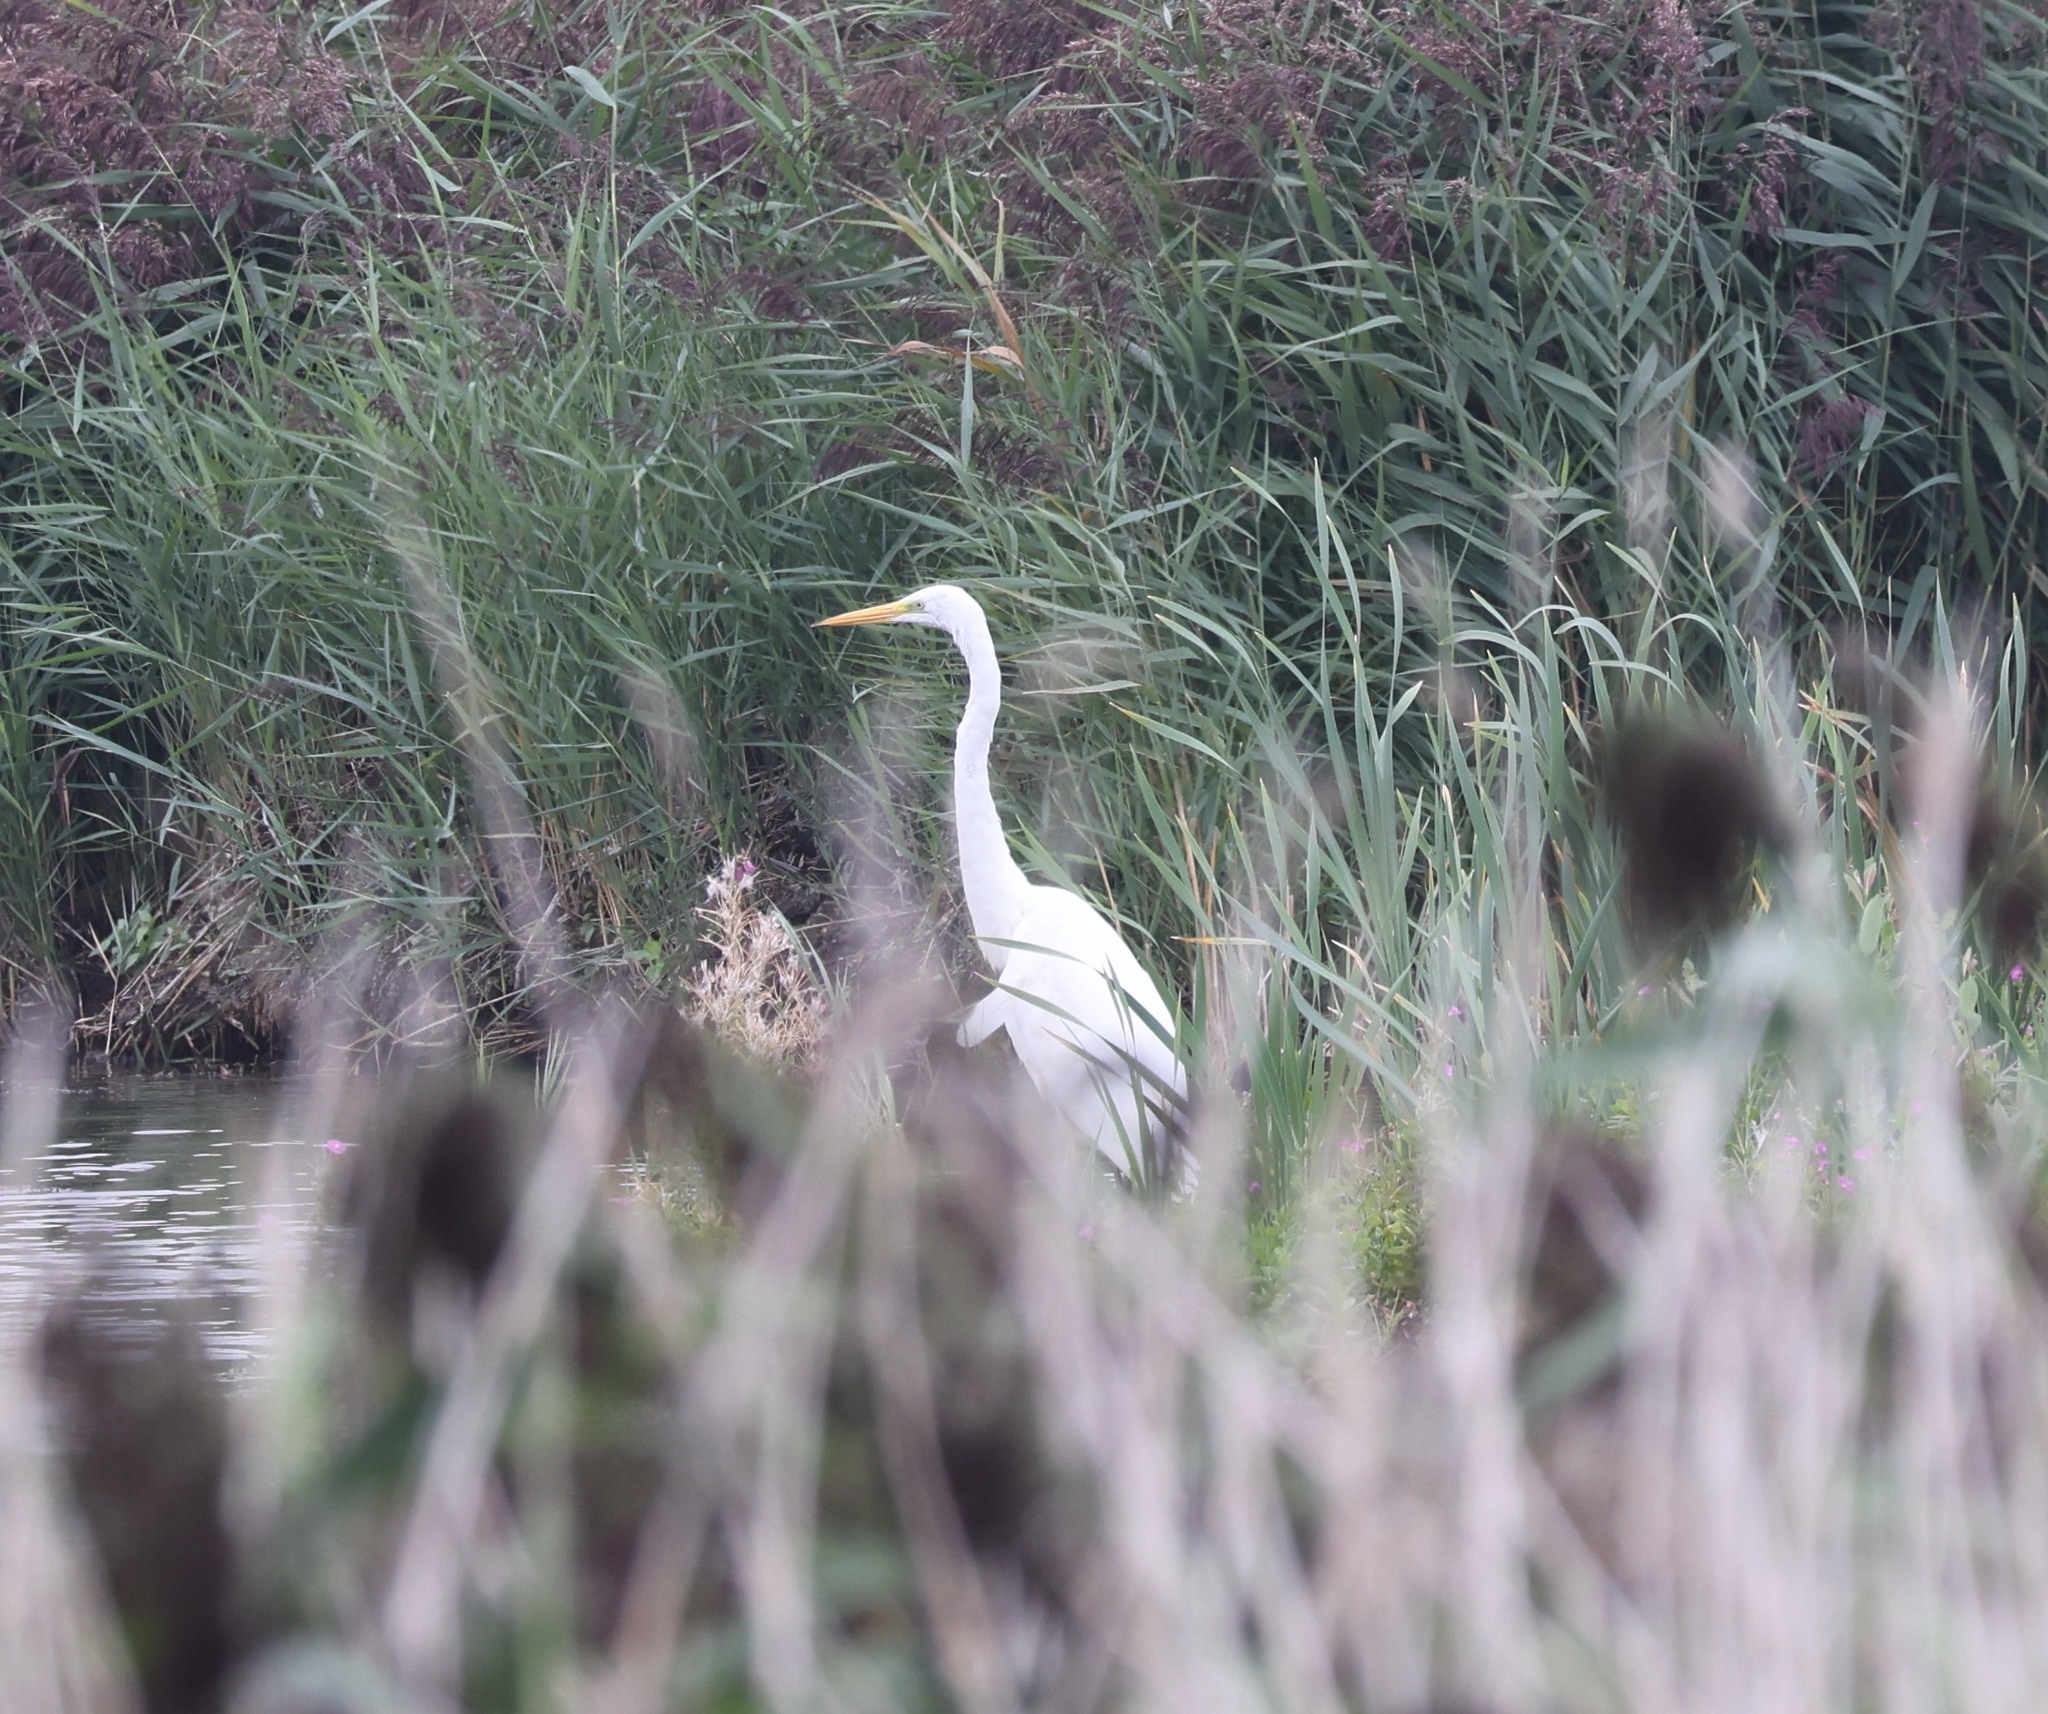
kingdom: Animalia
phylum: Chordata
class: Aves
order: Pelecaniformes
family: Ardeidae
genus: Ardea
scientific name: Ardea alba
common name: Great egret
